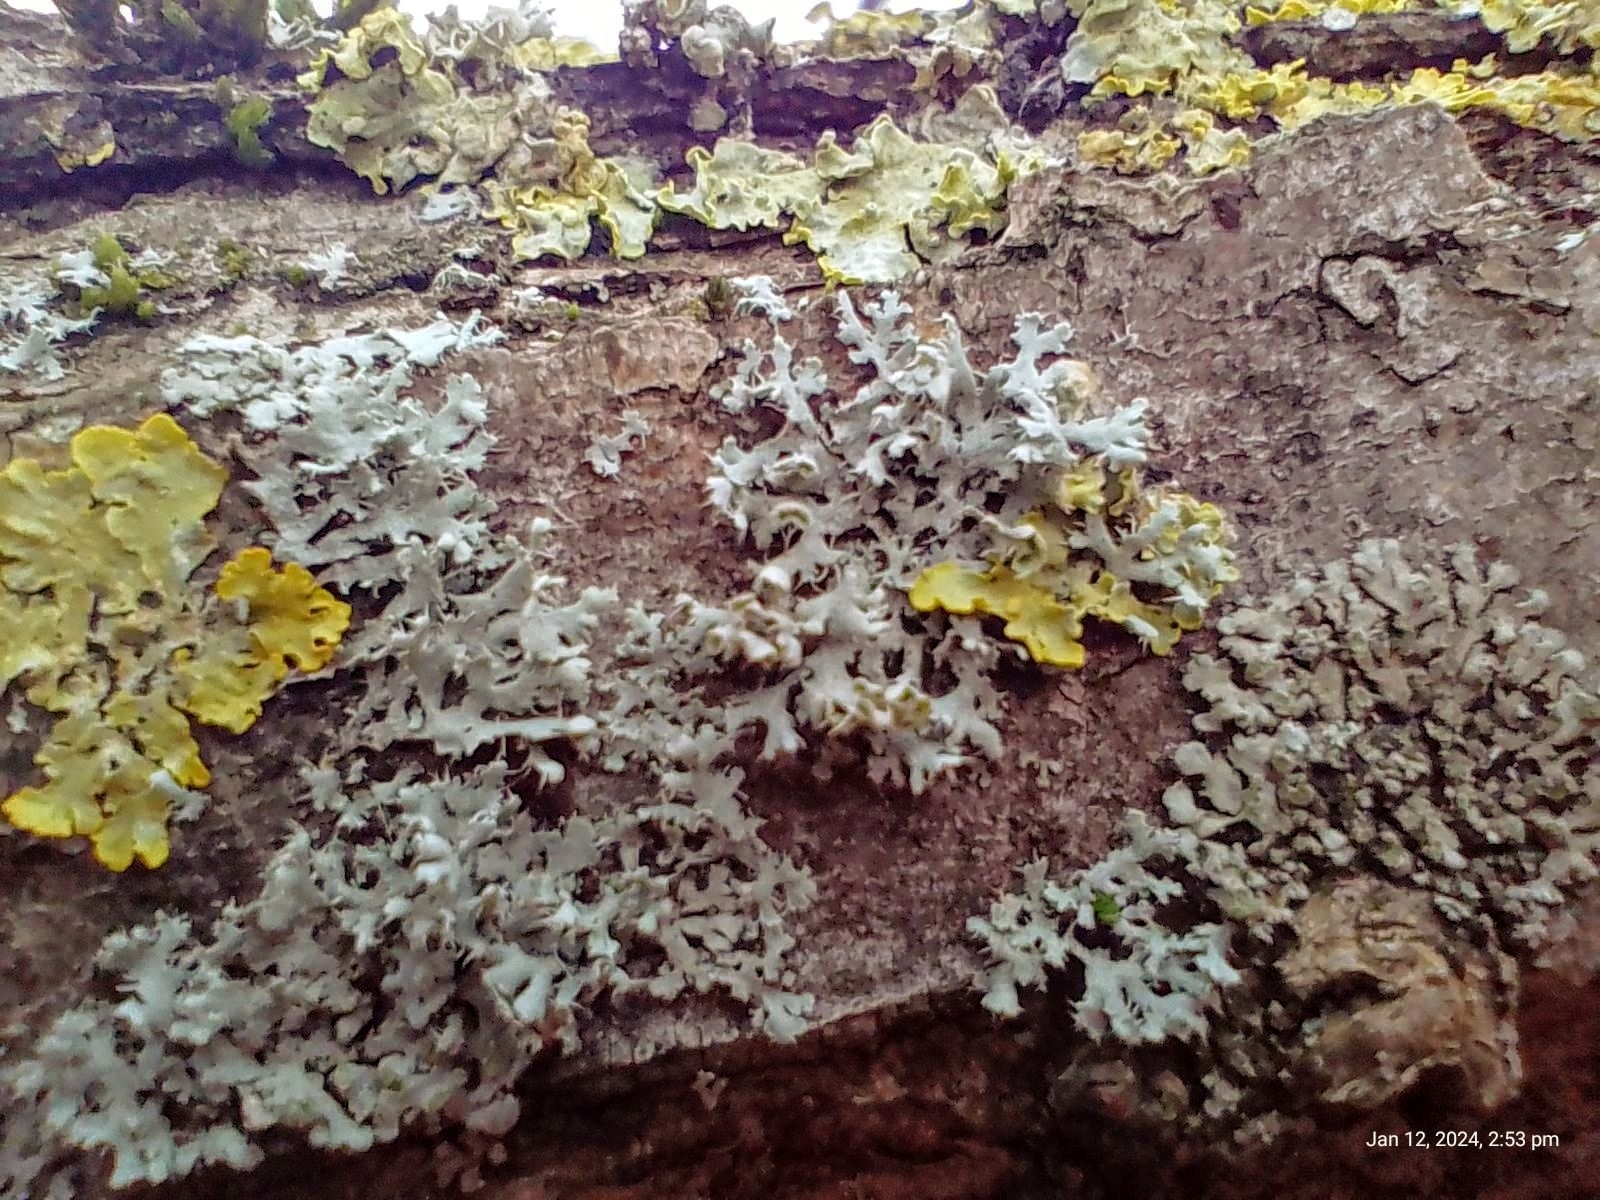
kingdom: Fungi
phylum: Ascomycota
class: Lecanoromycetes
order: Caliciales
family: Physciaceae
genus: Physcia
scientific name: Physcia adscendens
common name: Hooded rosette lichen
